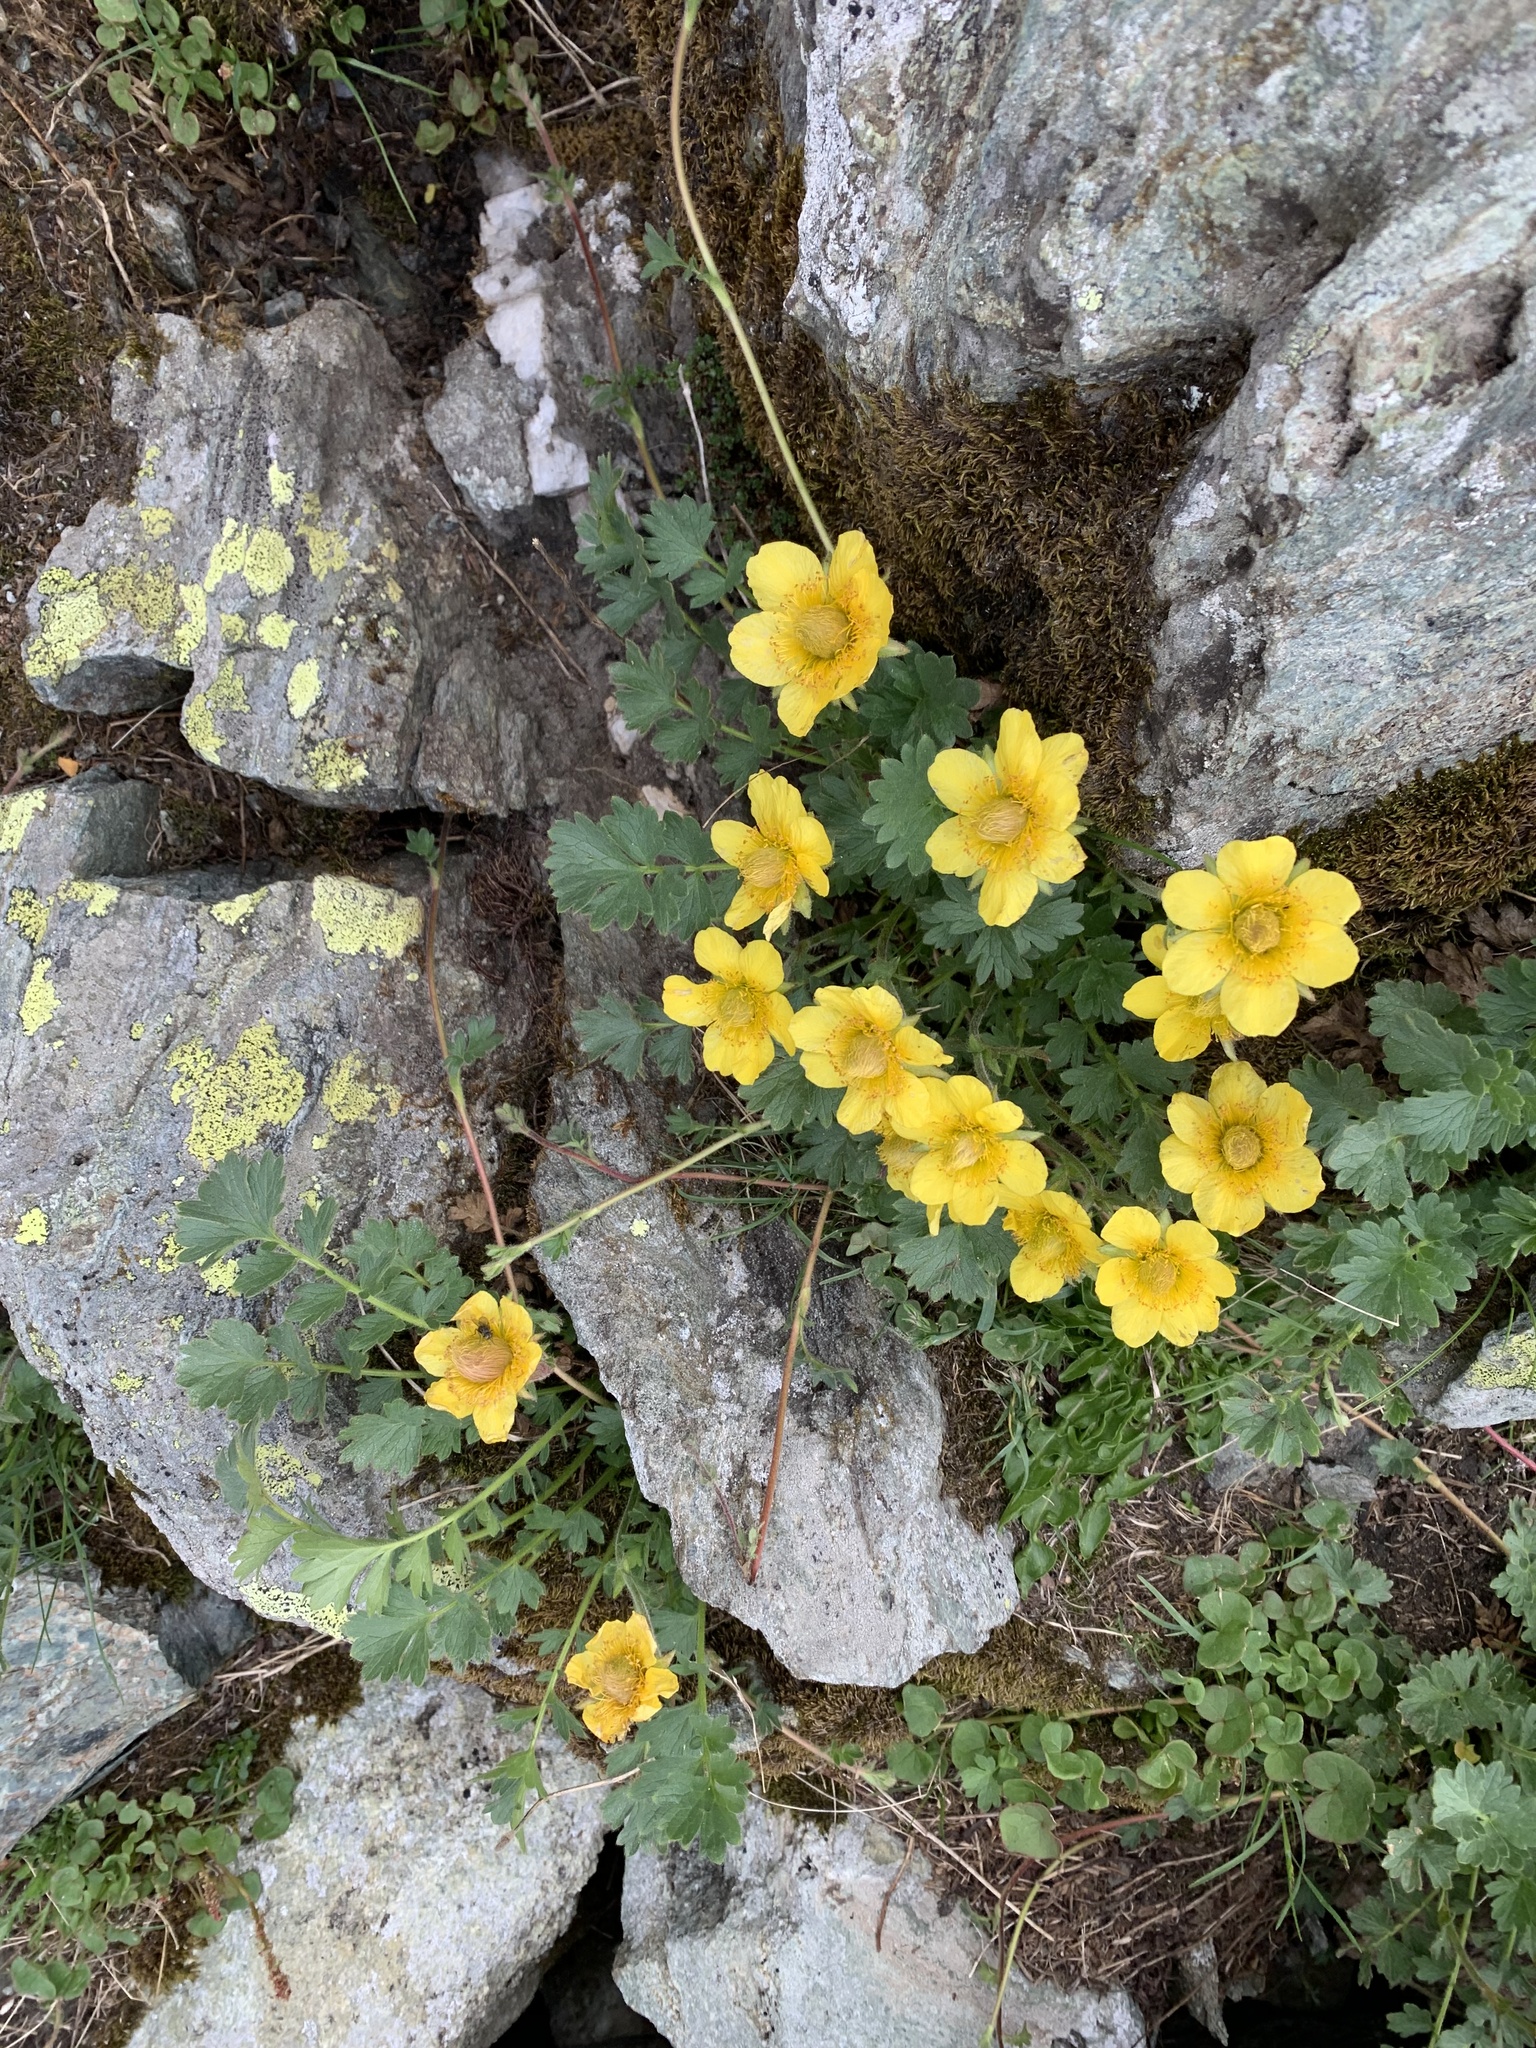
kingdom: Plantae
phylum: Tracheophyta
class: Magnoliopsida
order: Rosales
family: Rosaceae
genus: Geum
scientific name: Geum reptans
